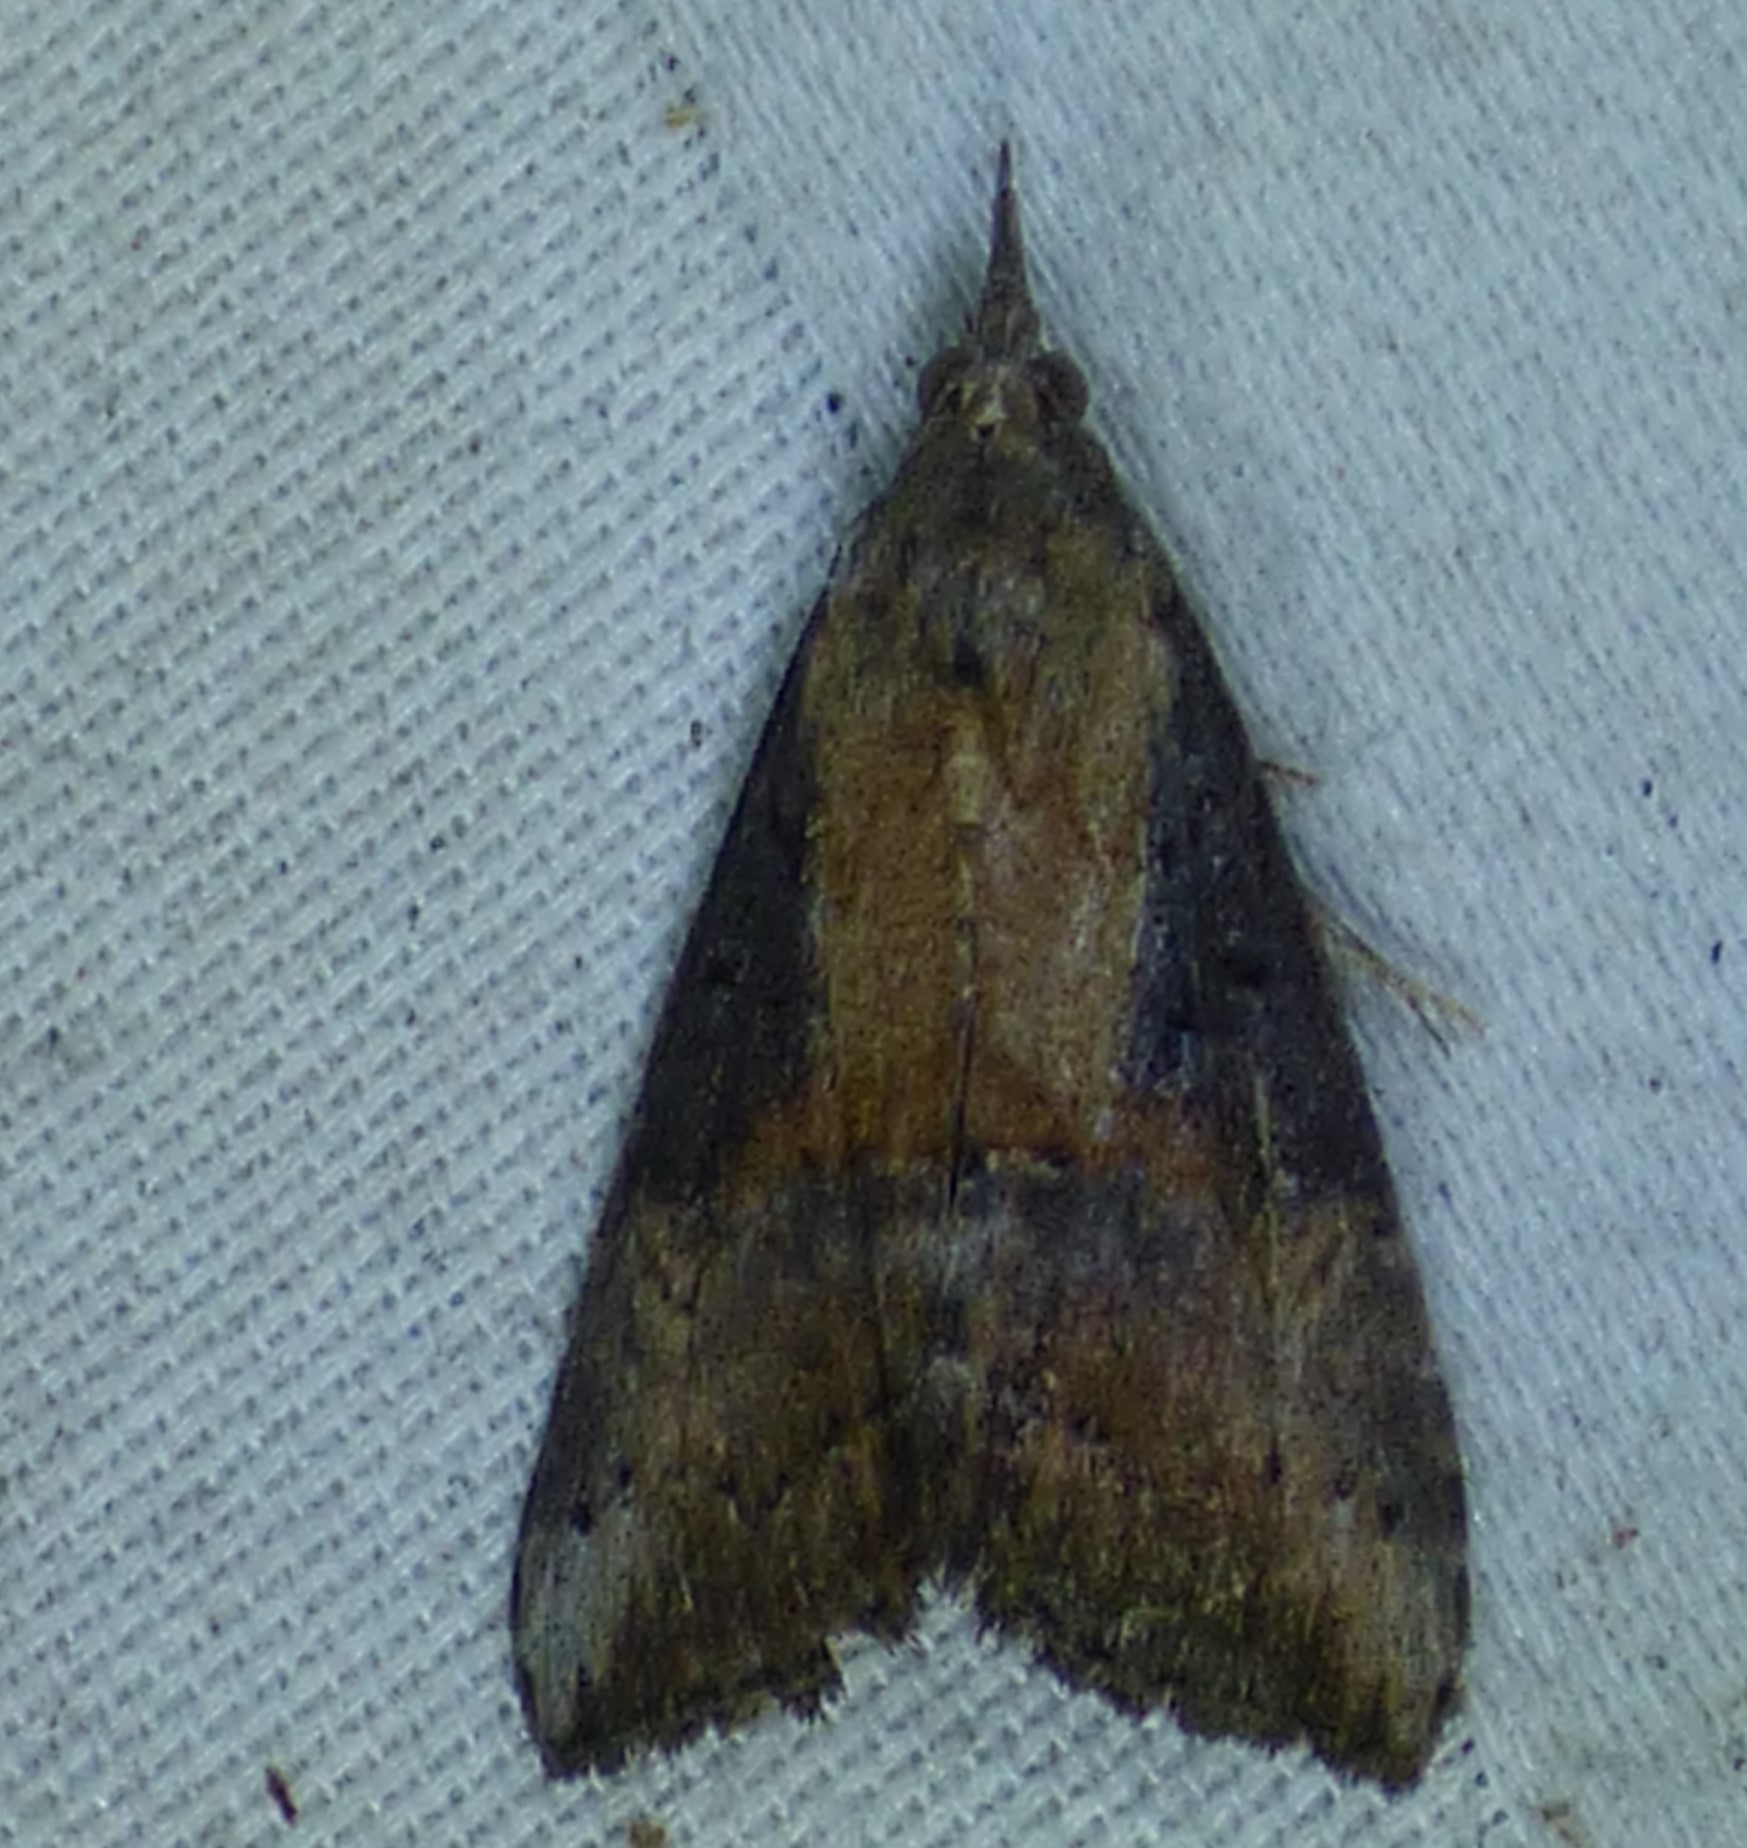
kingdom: Animalia
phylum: Arthropoda
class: Insecta
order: Lepidoptera
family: Erebidae
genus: Hypena
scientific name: Hypena scabra
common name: Green cloverworm
